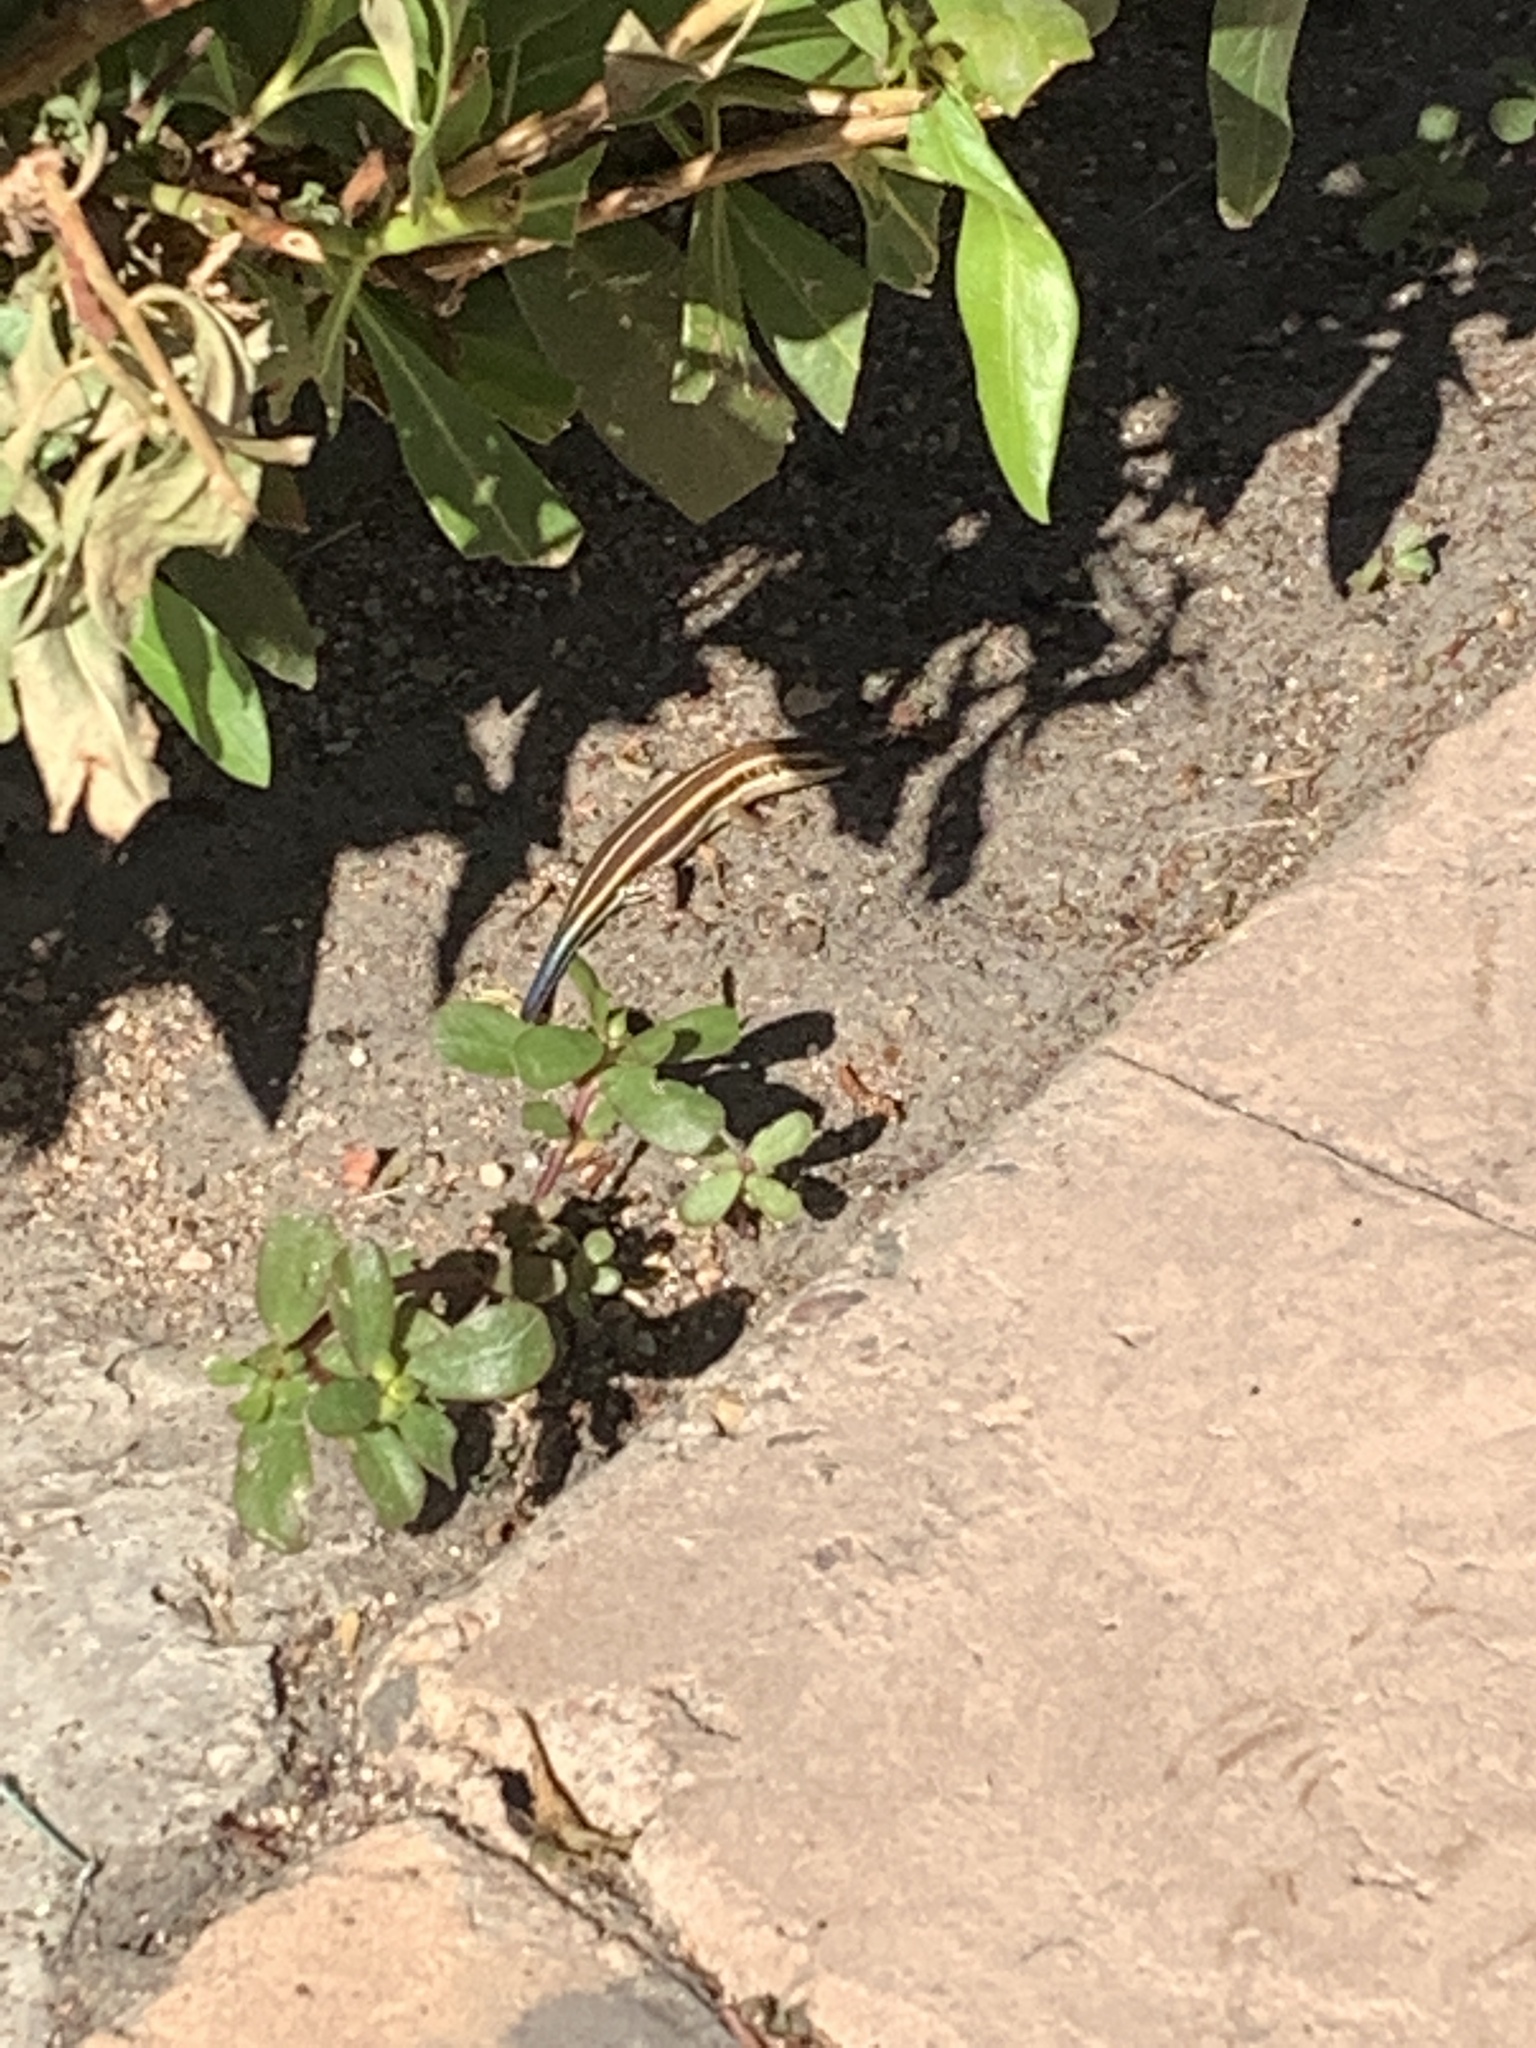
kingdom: Animalia
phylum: Chordata
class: Squamata
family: Scincidae
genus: Trachylepis
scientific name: Trachylepis quinquetaeniata
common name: African five-lined skink
